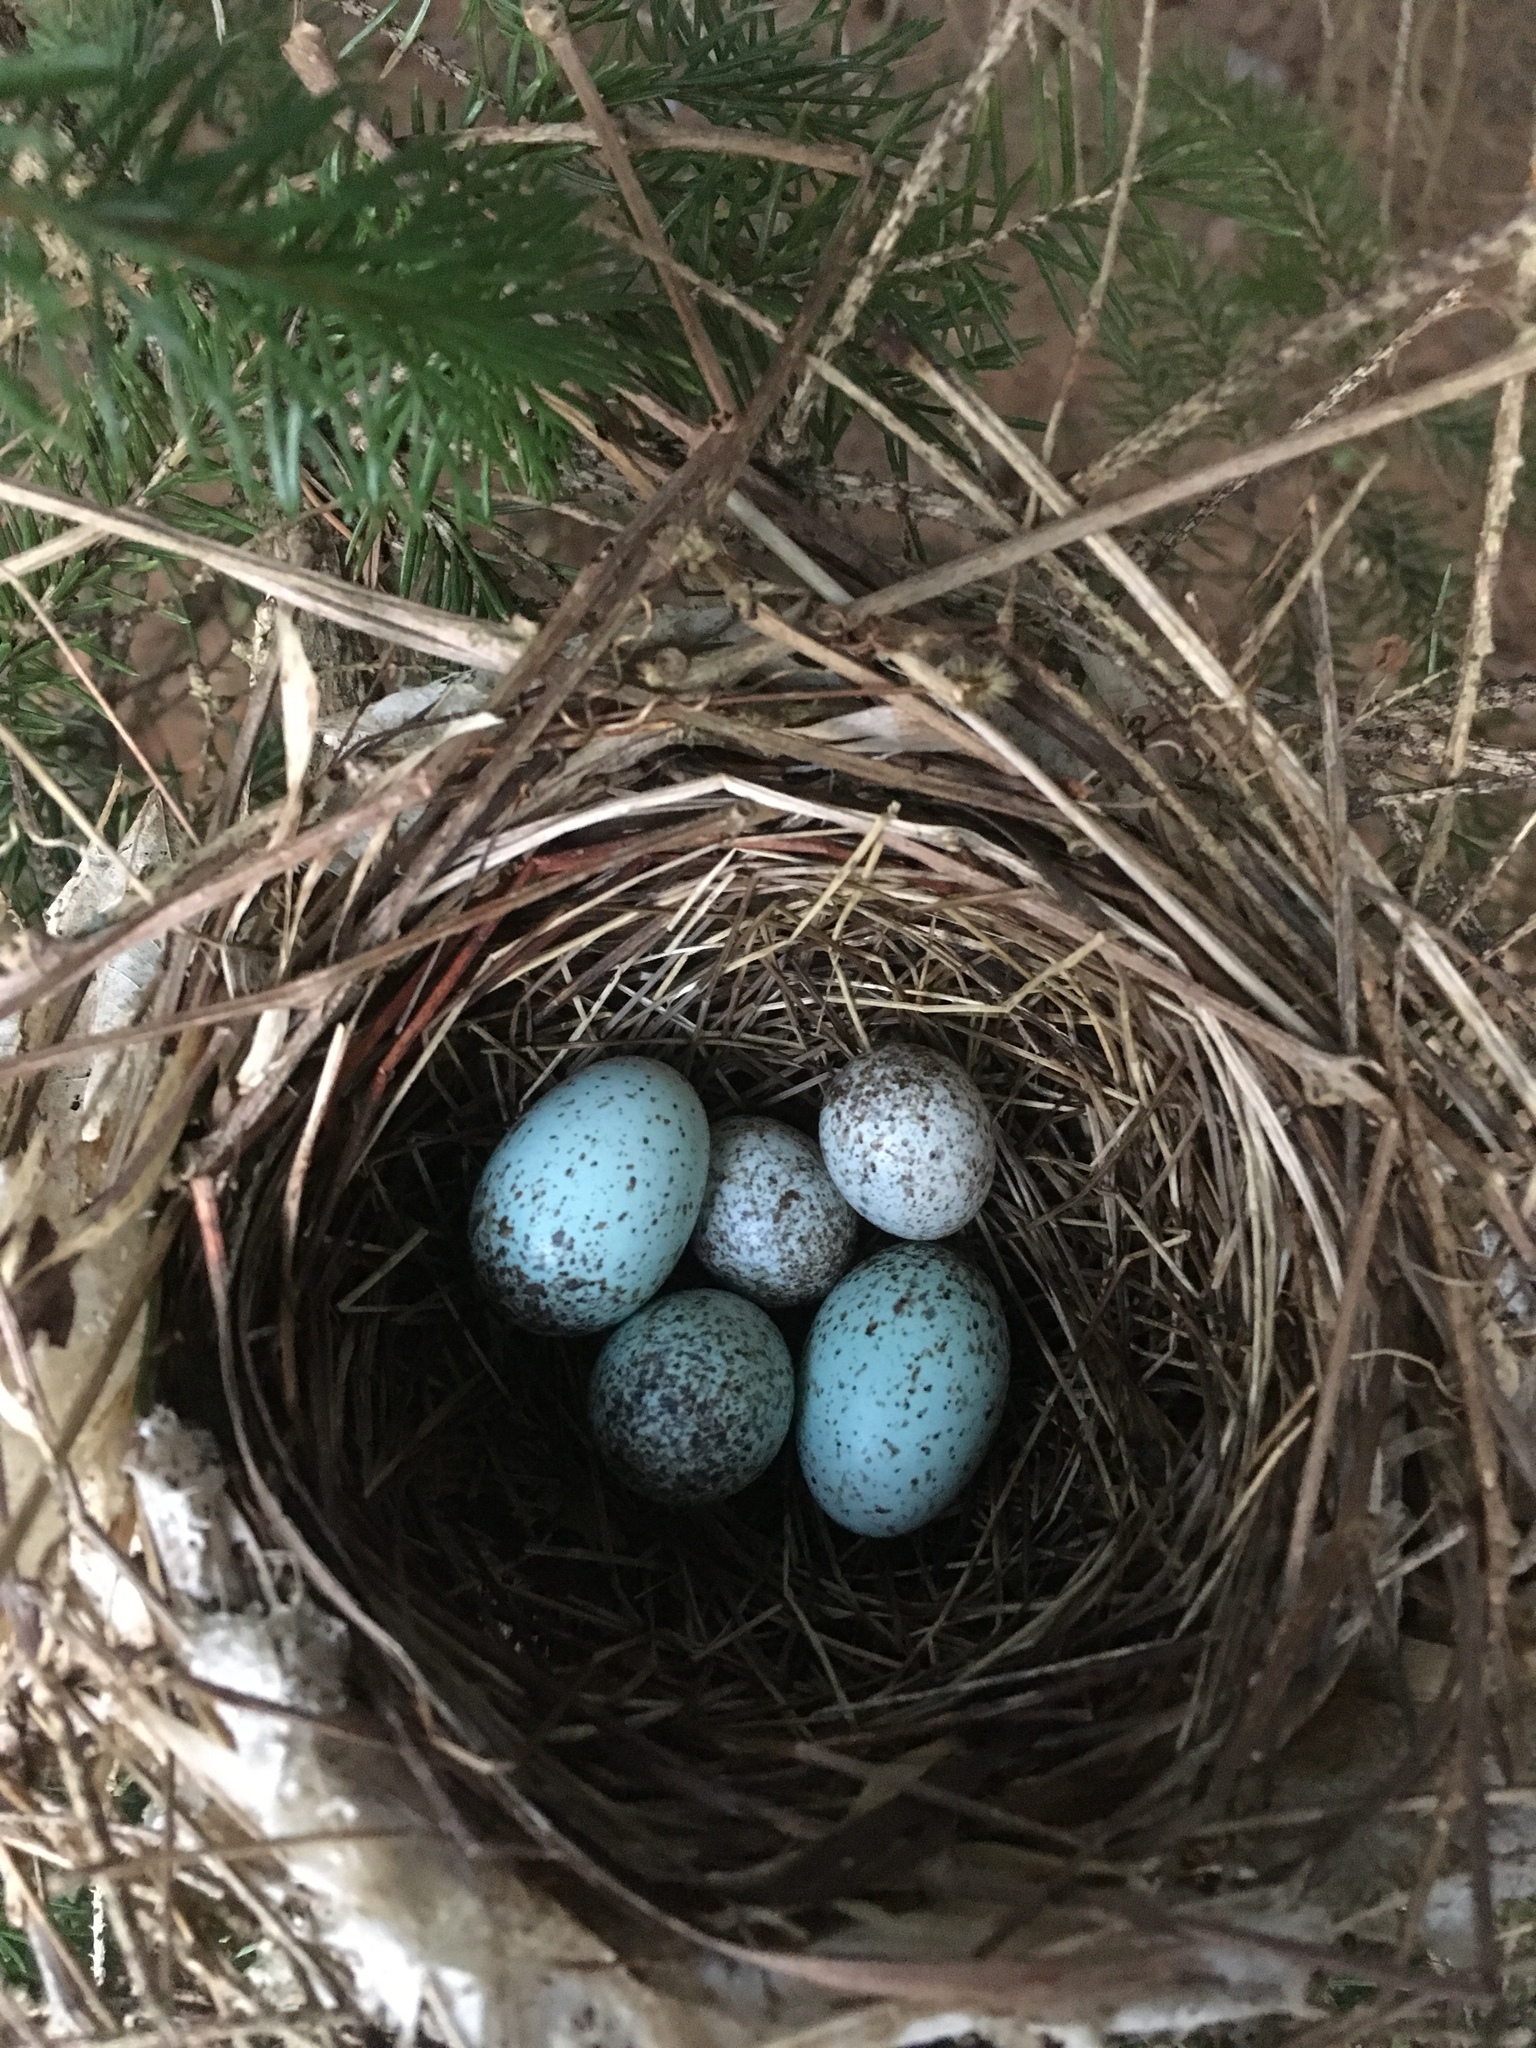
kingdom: Animalia
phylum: Chordata
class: Aves
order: Passeriformes
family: Cardinalidae
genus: Cardinalis
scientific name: Cardinalis cardinalis
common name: Northern cardinal
